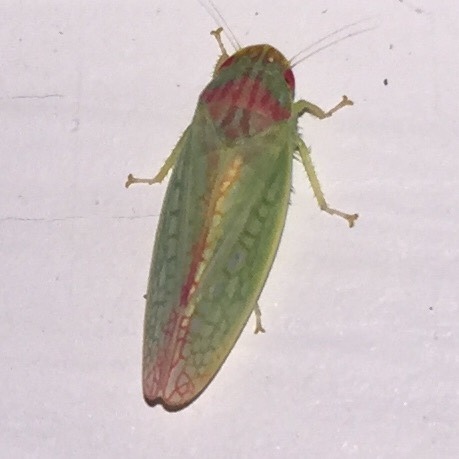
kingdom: Animalia
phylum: Arthropoda
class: Insecta
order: Hemiptera
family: Cicadellidae
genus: Gyponana
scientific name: Gyponana octolineata
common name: Eight-lined leafhopper
